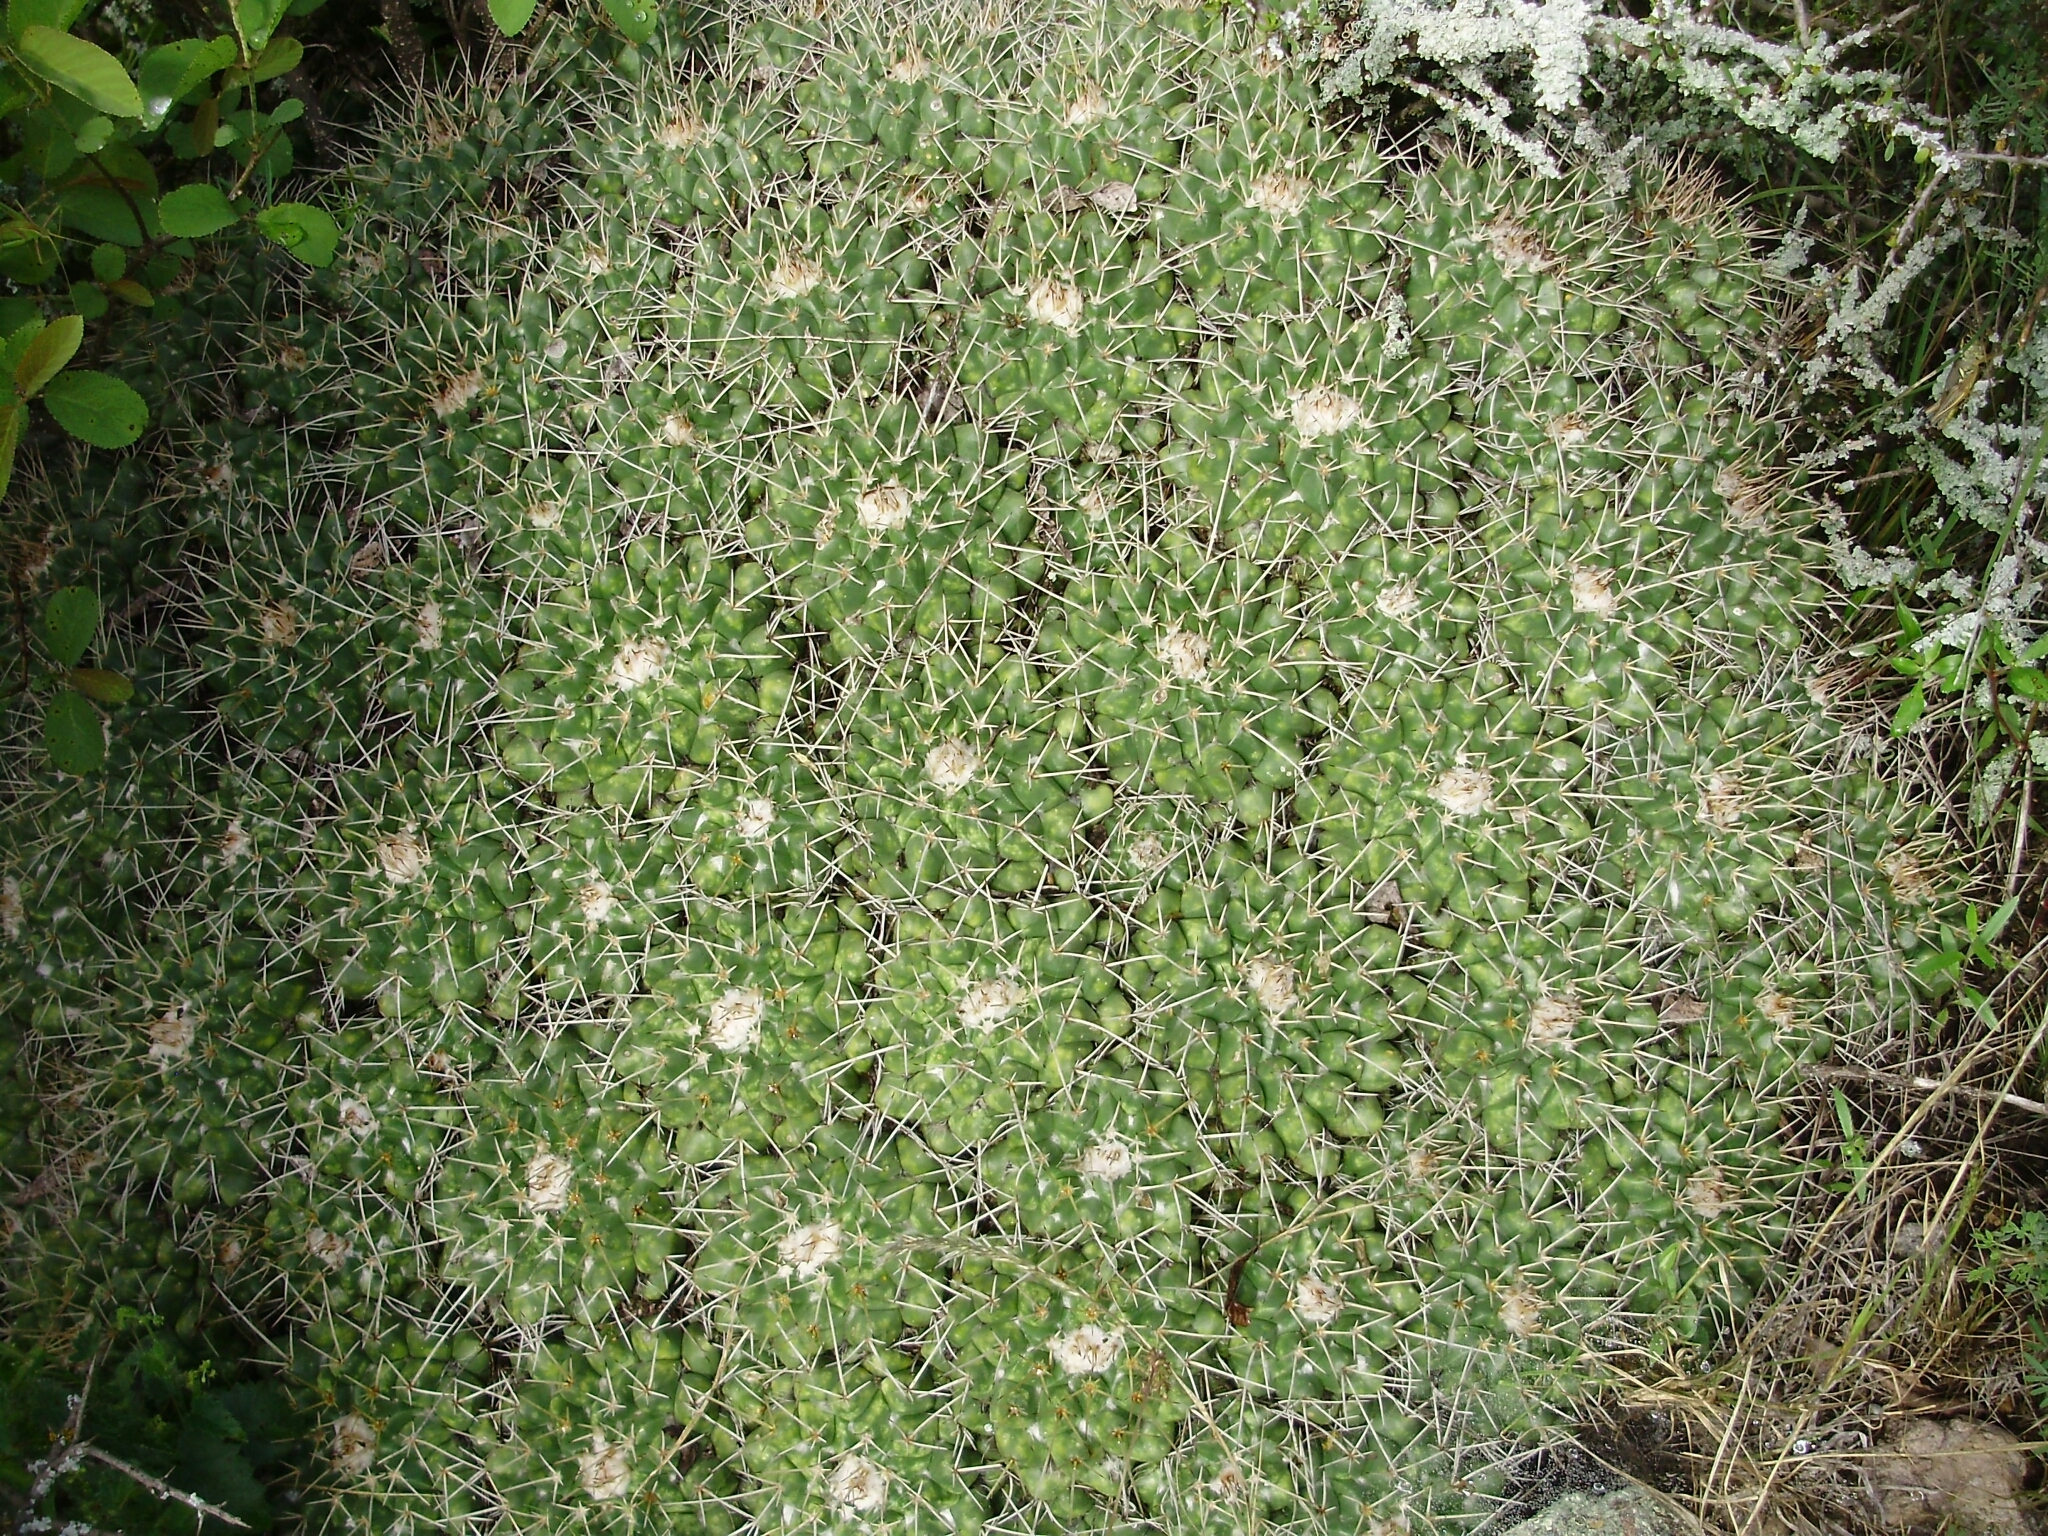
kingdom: Plantae
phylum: Tracheophyta
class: Magnoliopsida
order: Caryophyllales
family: Cactaceae
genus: Mammillaria
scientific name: Mammillaria compressa
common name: Mother-of-hundreds
